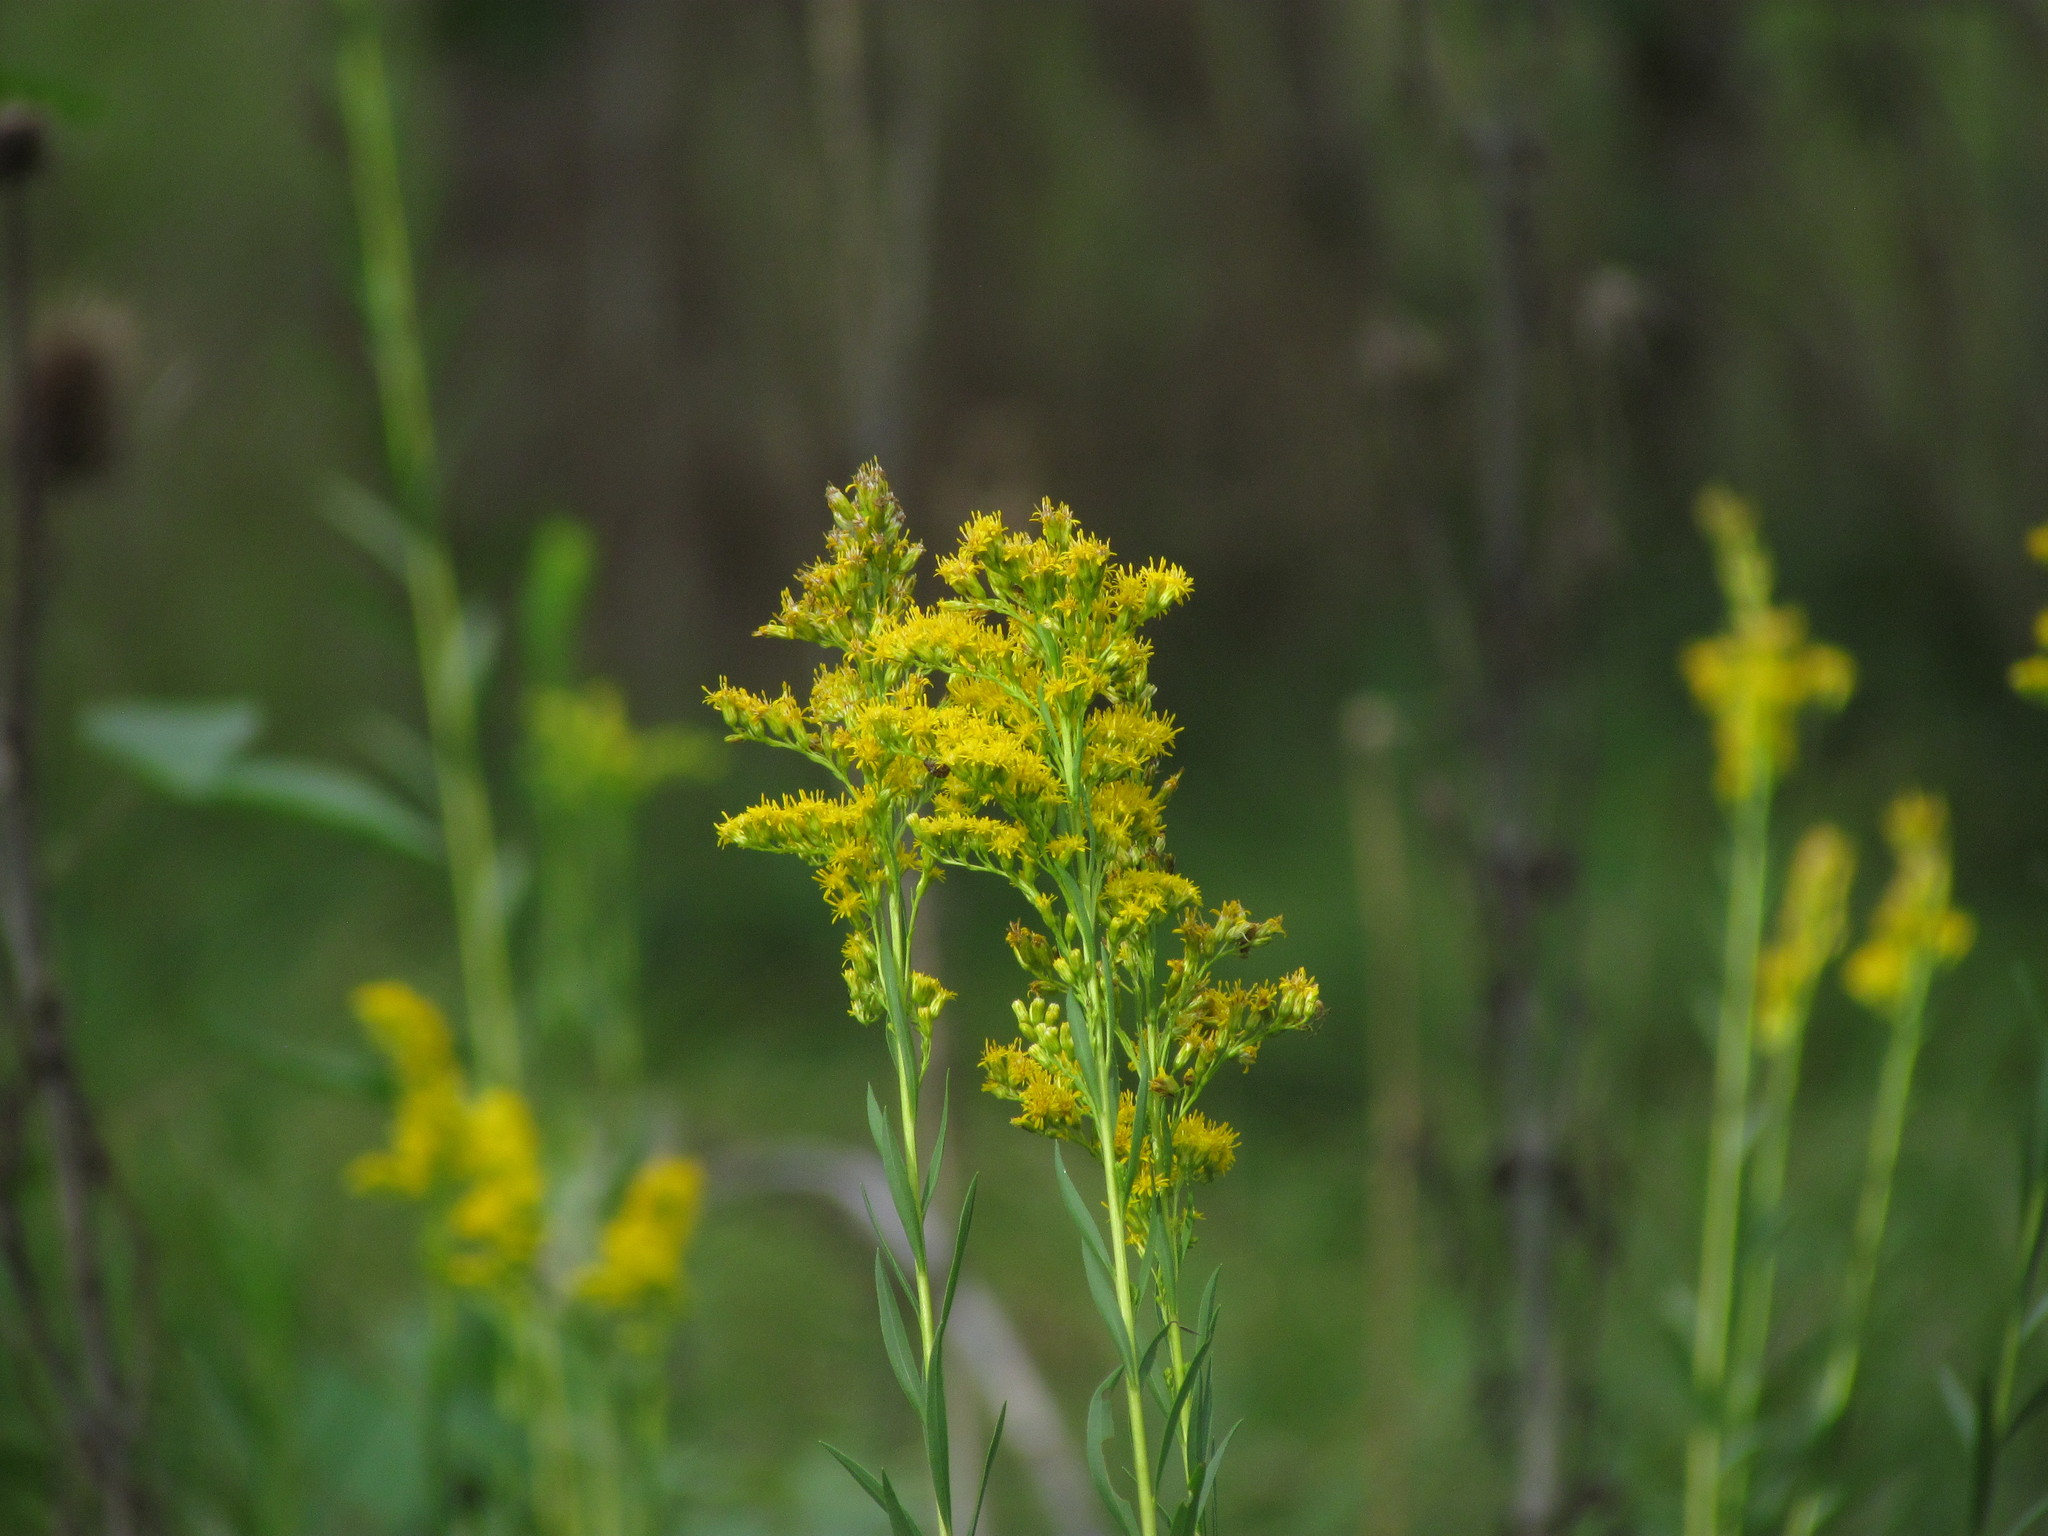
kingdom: Plantae
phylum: Tracheophyta
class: Magnoliopsida
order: Asterales
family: Asteraceae
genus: Solidago
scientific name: Solidago chilensis
